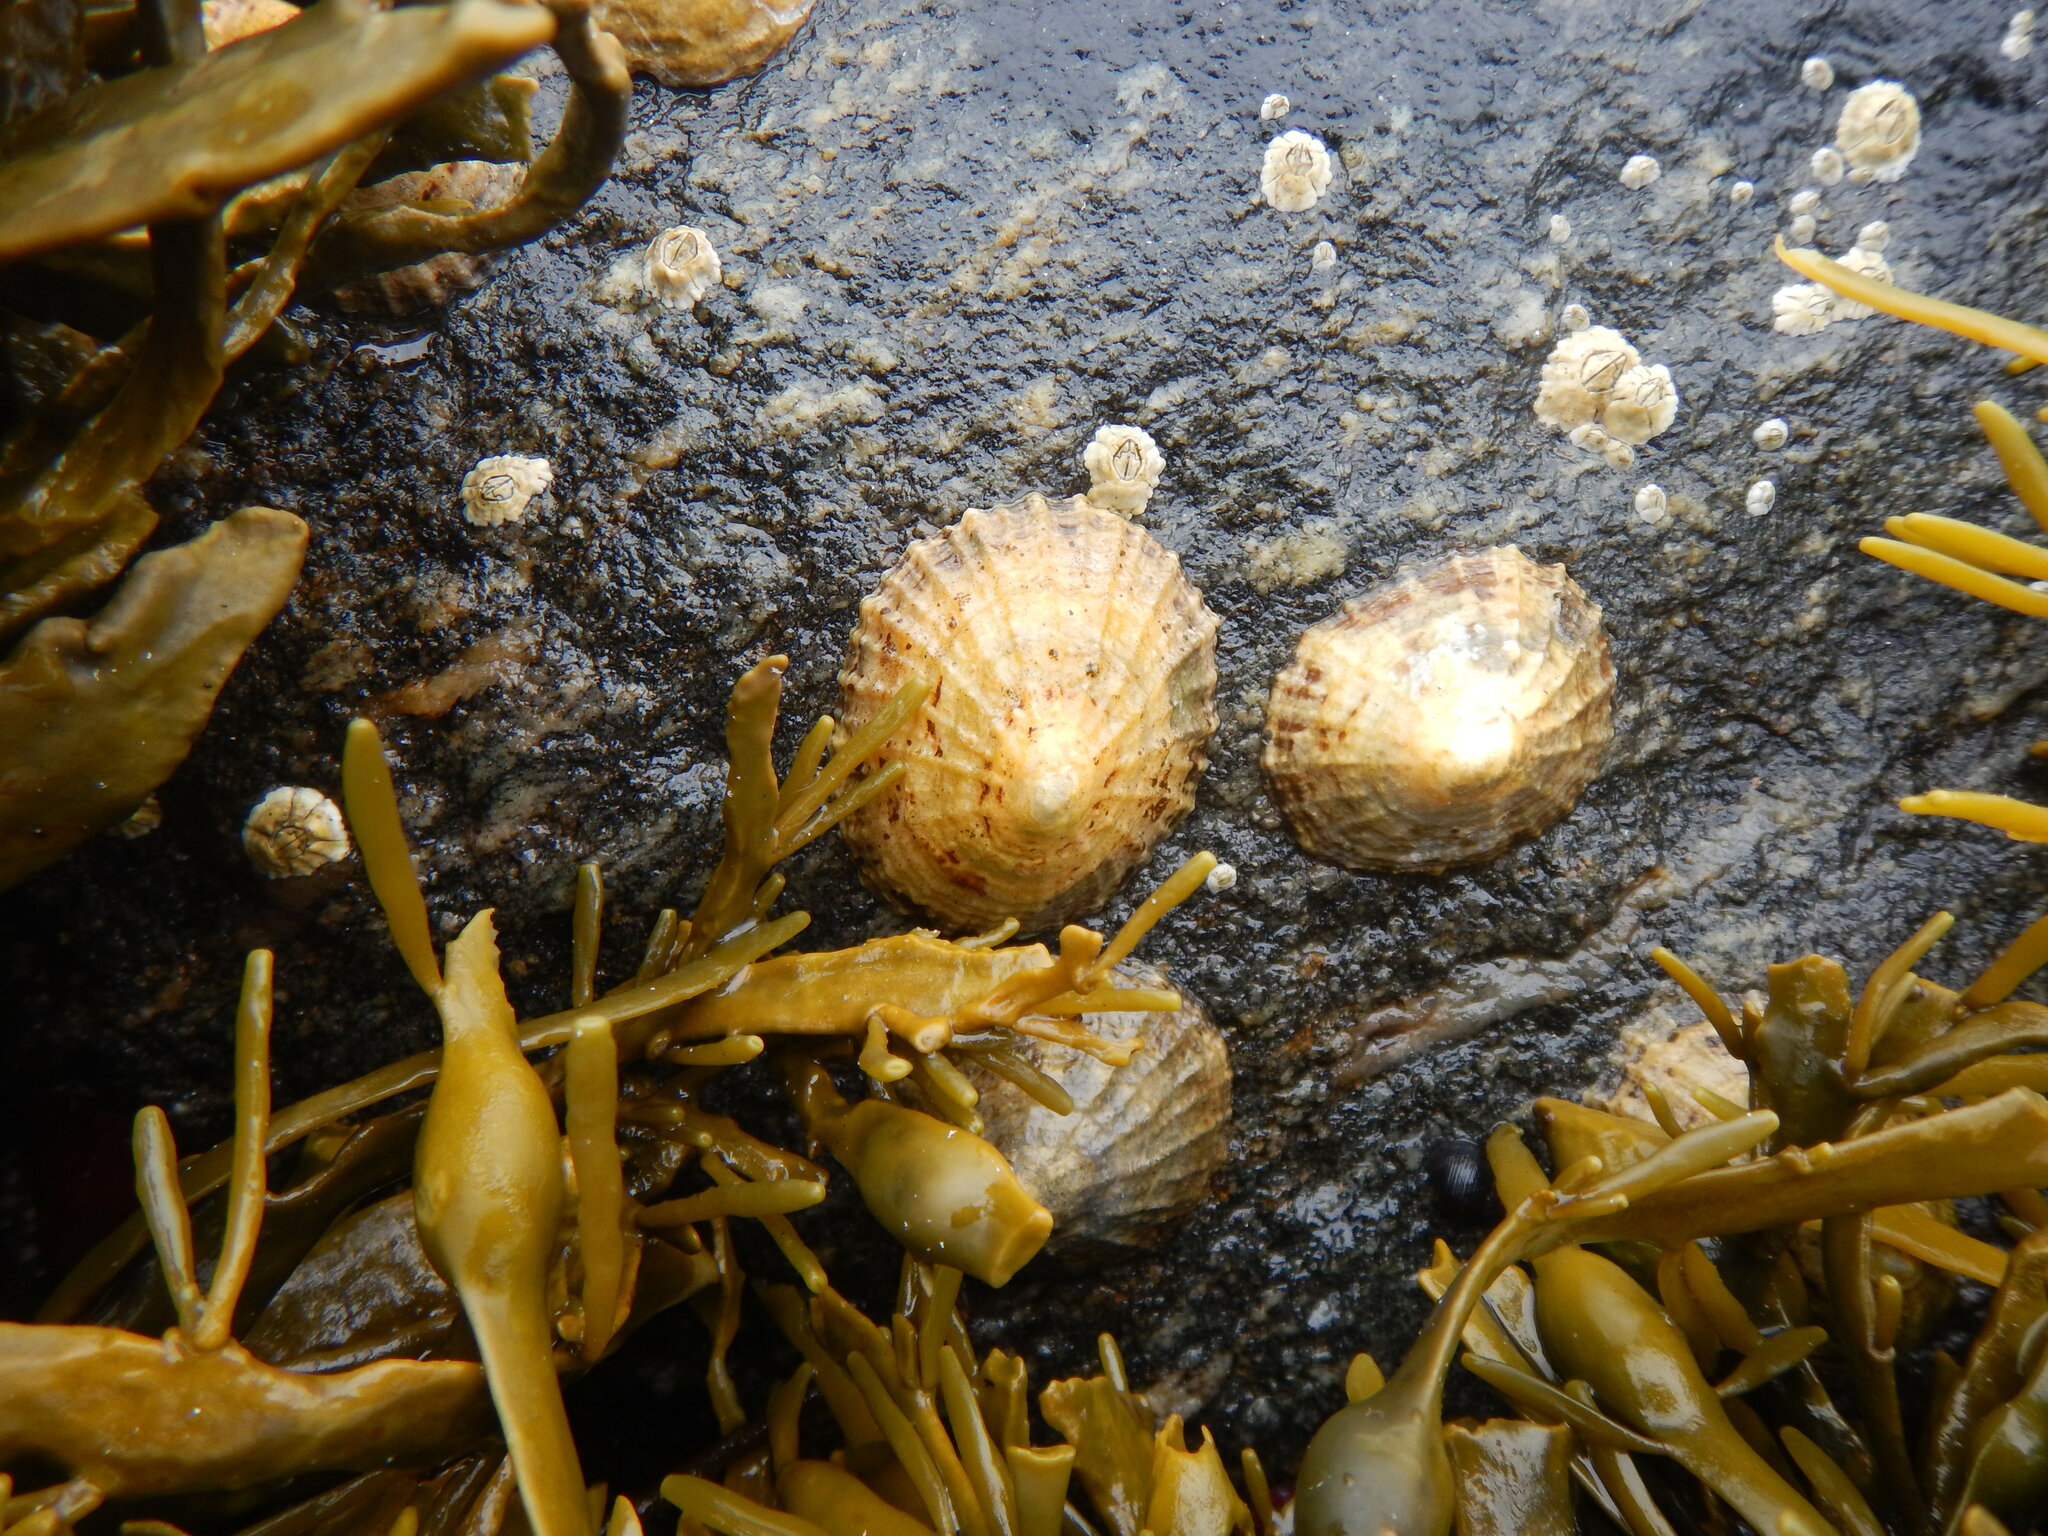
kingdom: Animalia
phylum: Mollusca
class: Gastropoda
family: Patellidae
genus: Patella
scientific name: Patella vulgata
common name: Common limpet
